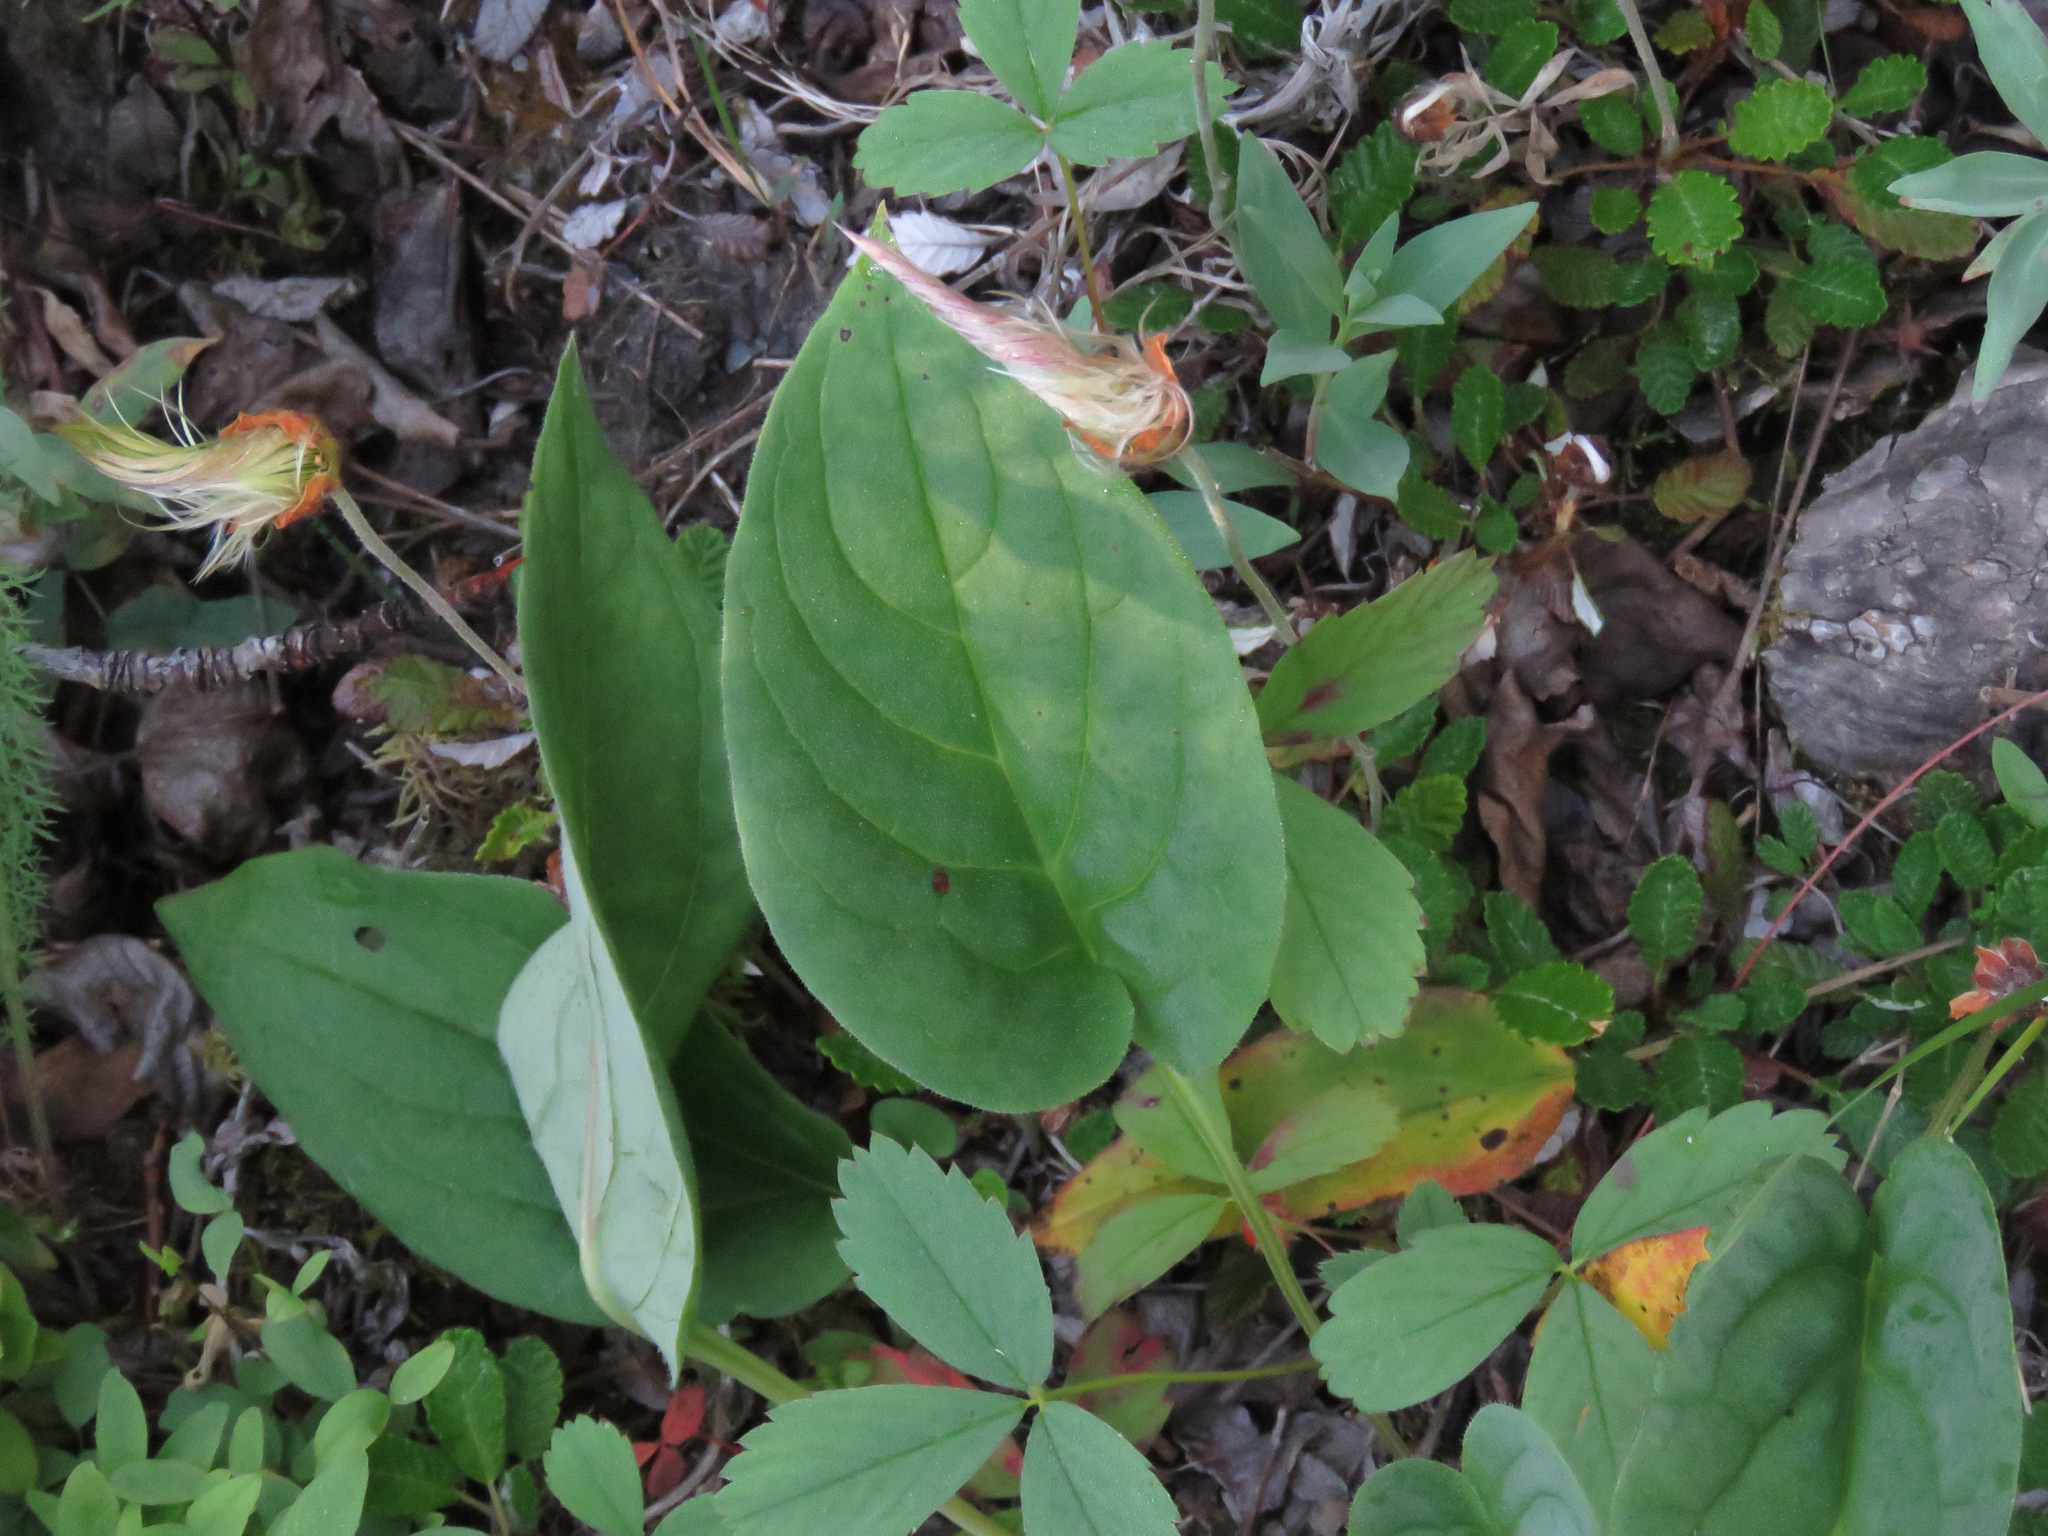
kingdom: Plantae
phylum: Tracheophyta
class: Magnoliopsida
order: Boraginales
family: Boraginaceae
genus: Mertensia
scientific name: Mertensia paniculata
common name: Panicled bluebells
